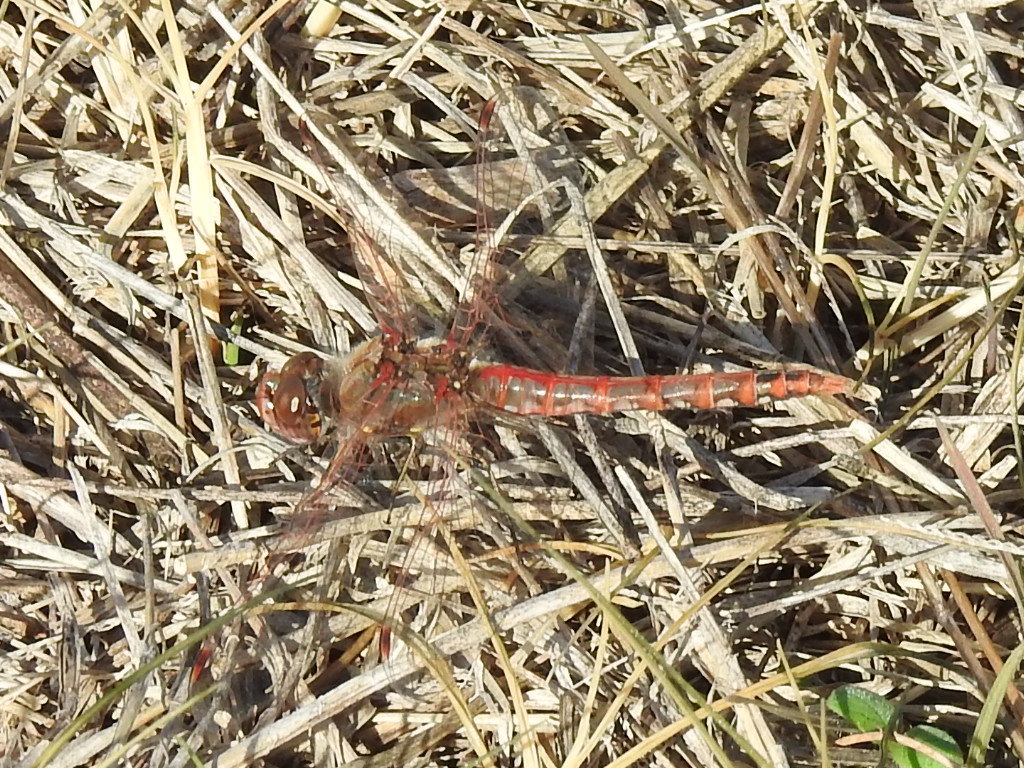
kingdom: Animalia
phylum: Arthropoda
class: Insecta
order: Odonata
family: Libellulidae
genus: Sympetrum
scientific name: Sympetrum corruptum
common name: Variegated meadowhawk
